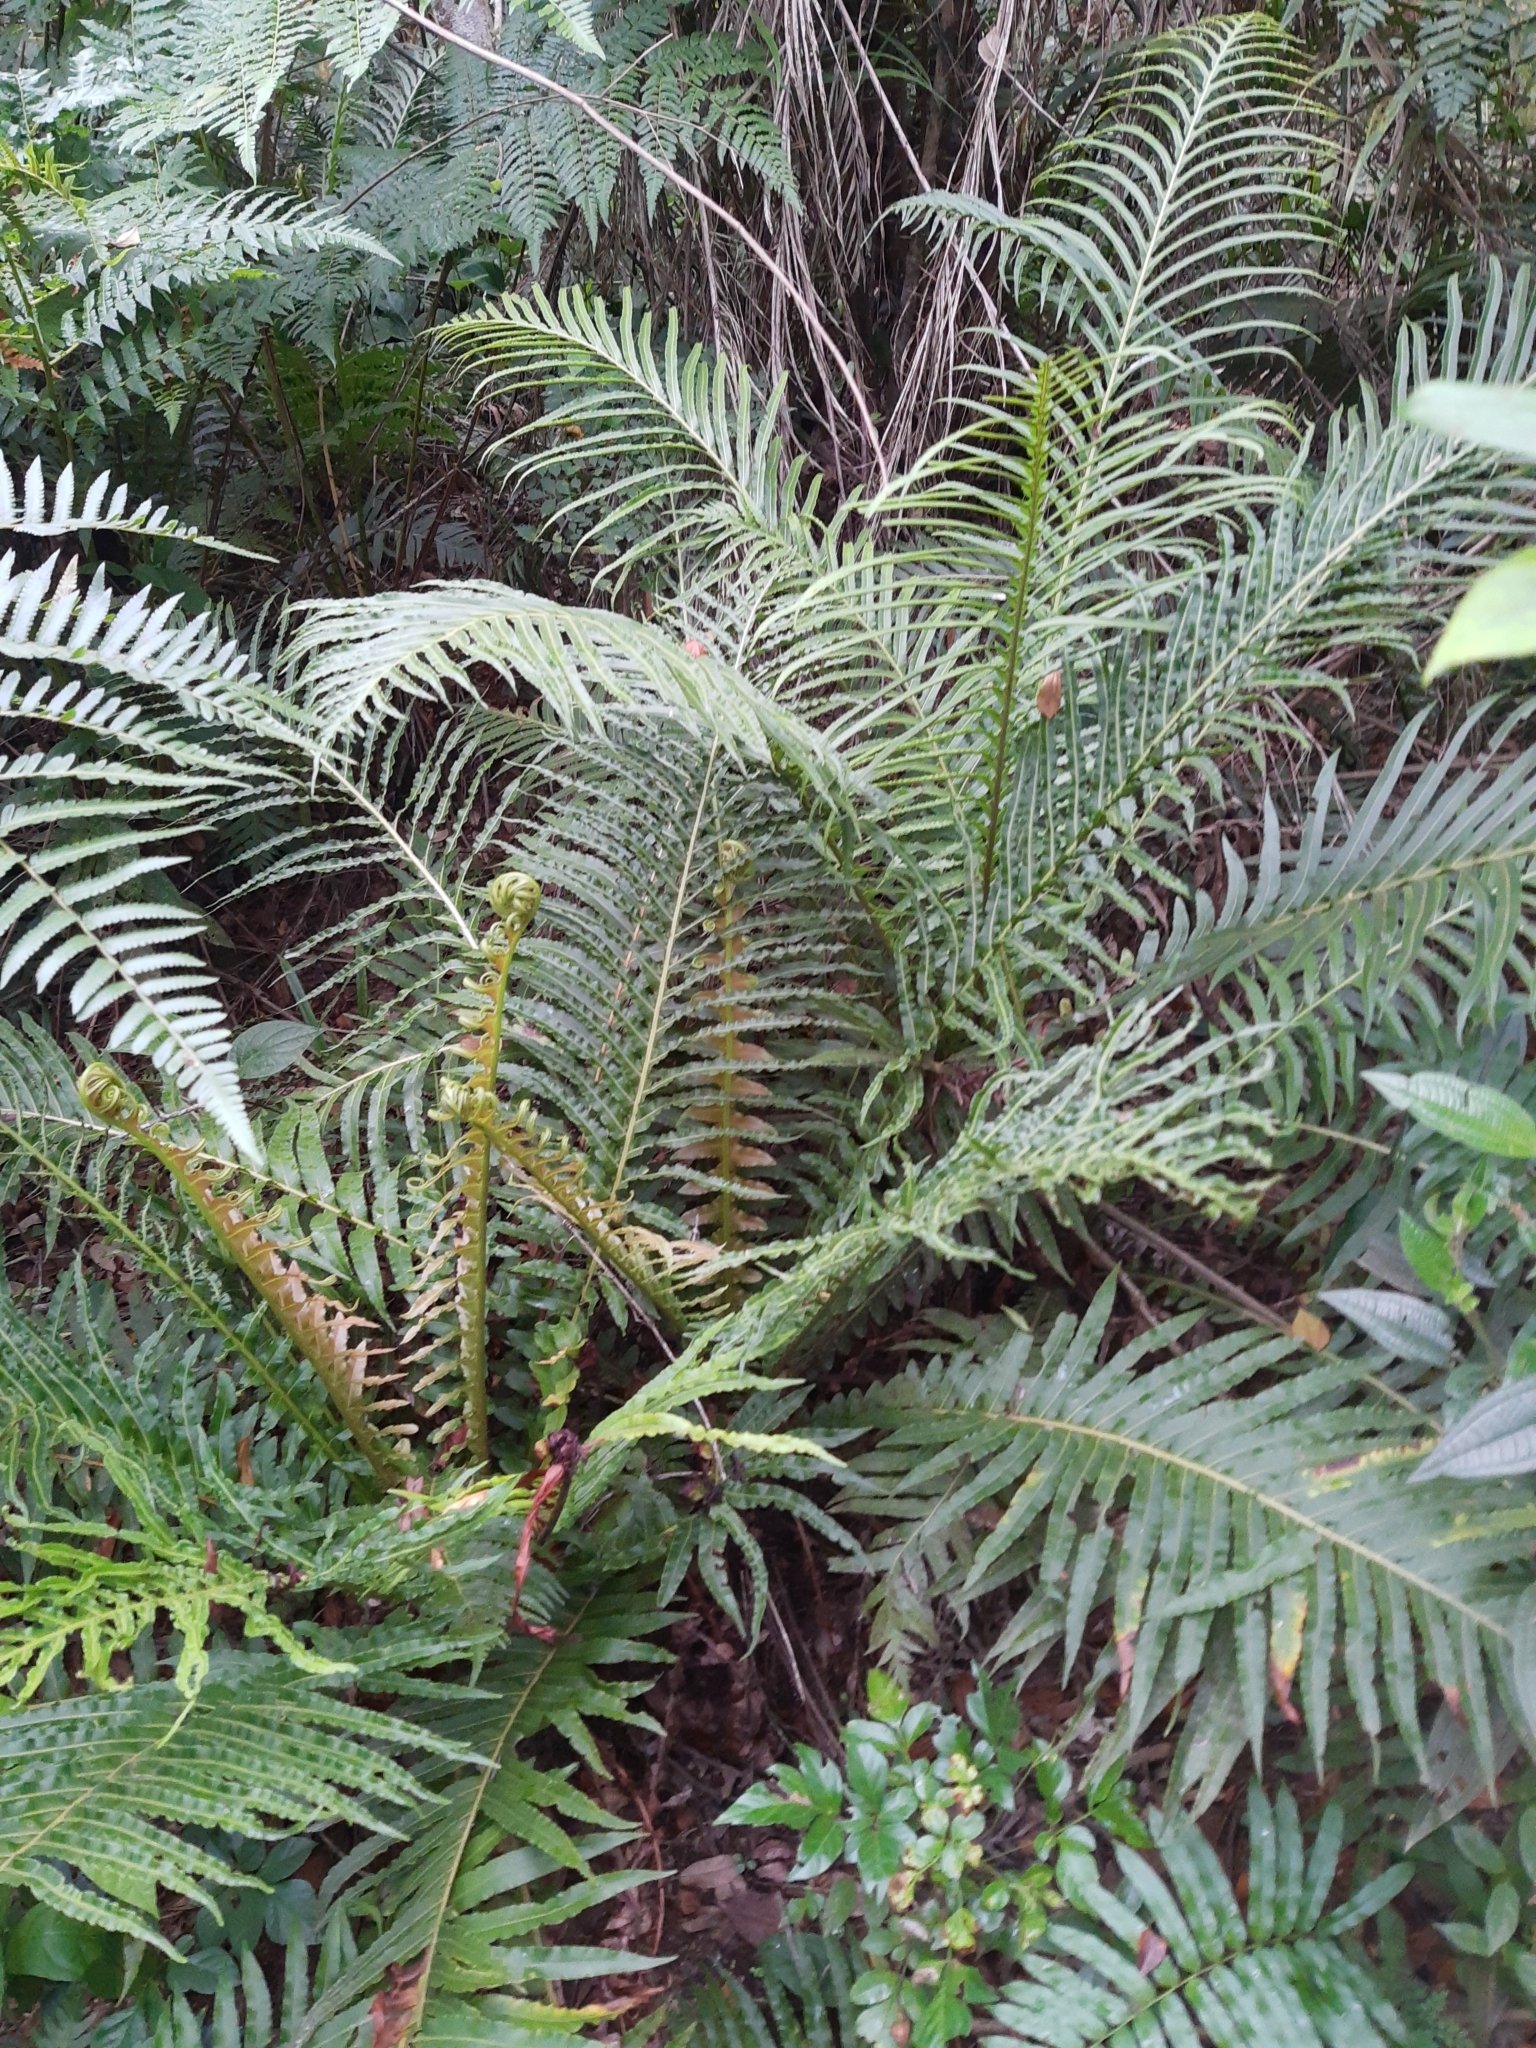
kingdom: Plantae
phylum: Tracheophyta
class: Polypodiopsida
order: Polypodiales
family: Blechnaceae
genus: Neoblechnum
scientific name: Neoblechnum brasiliense
